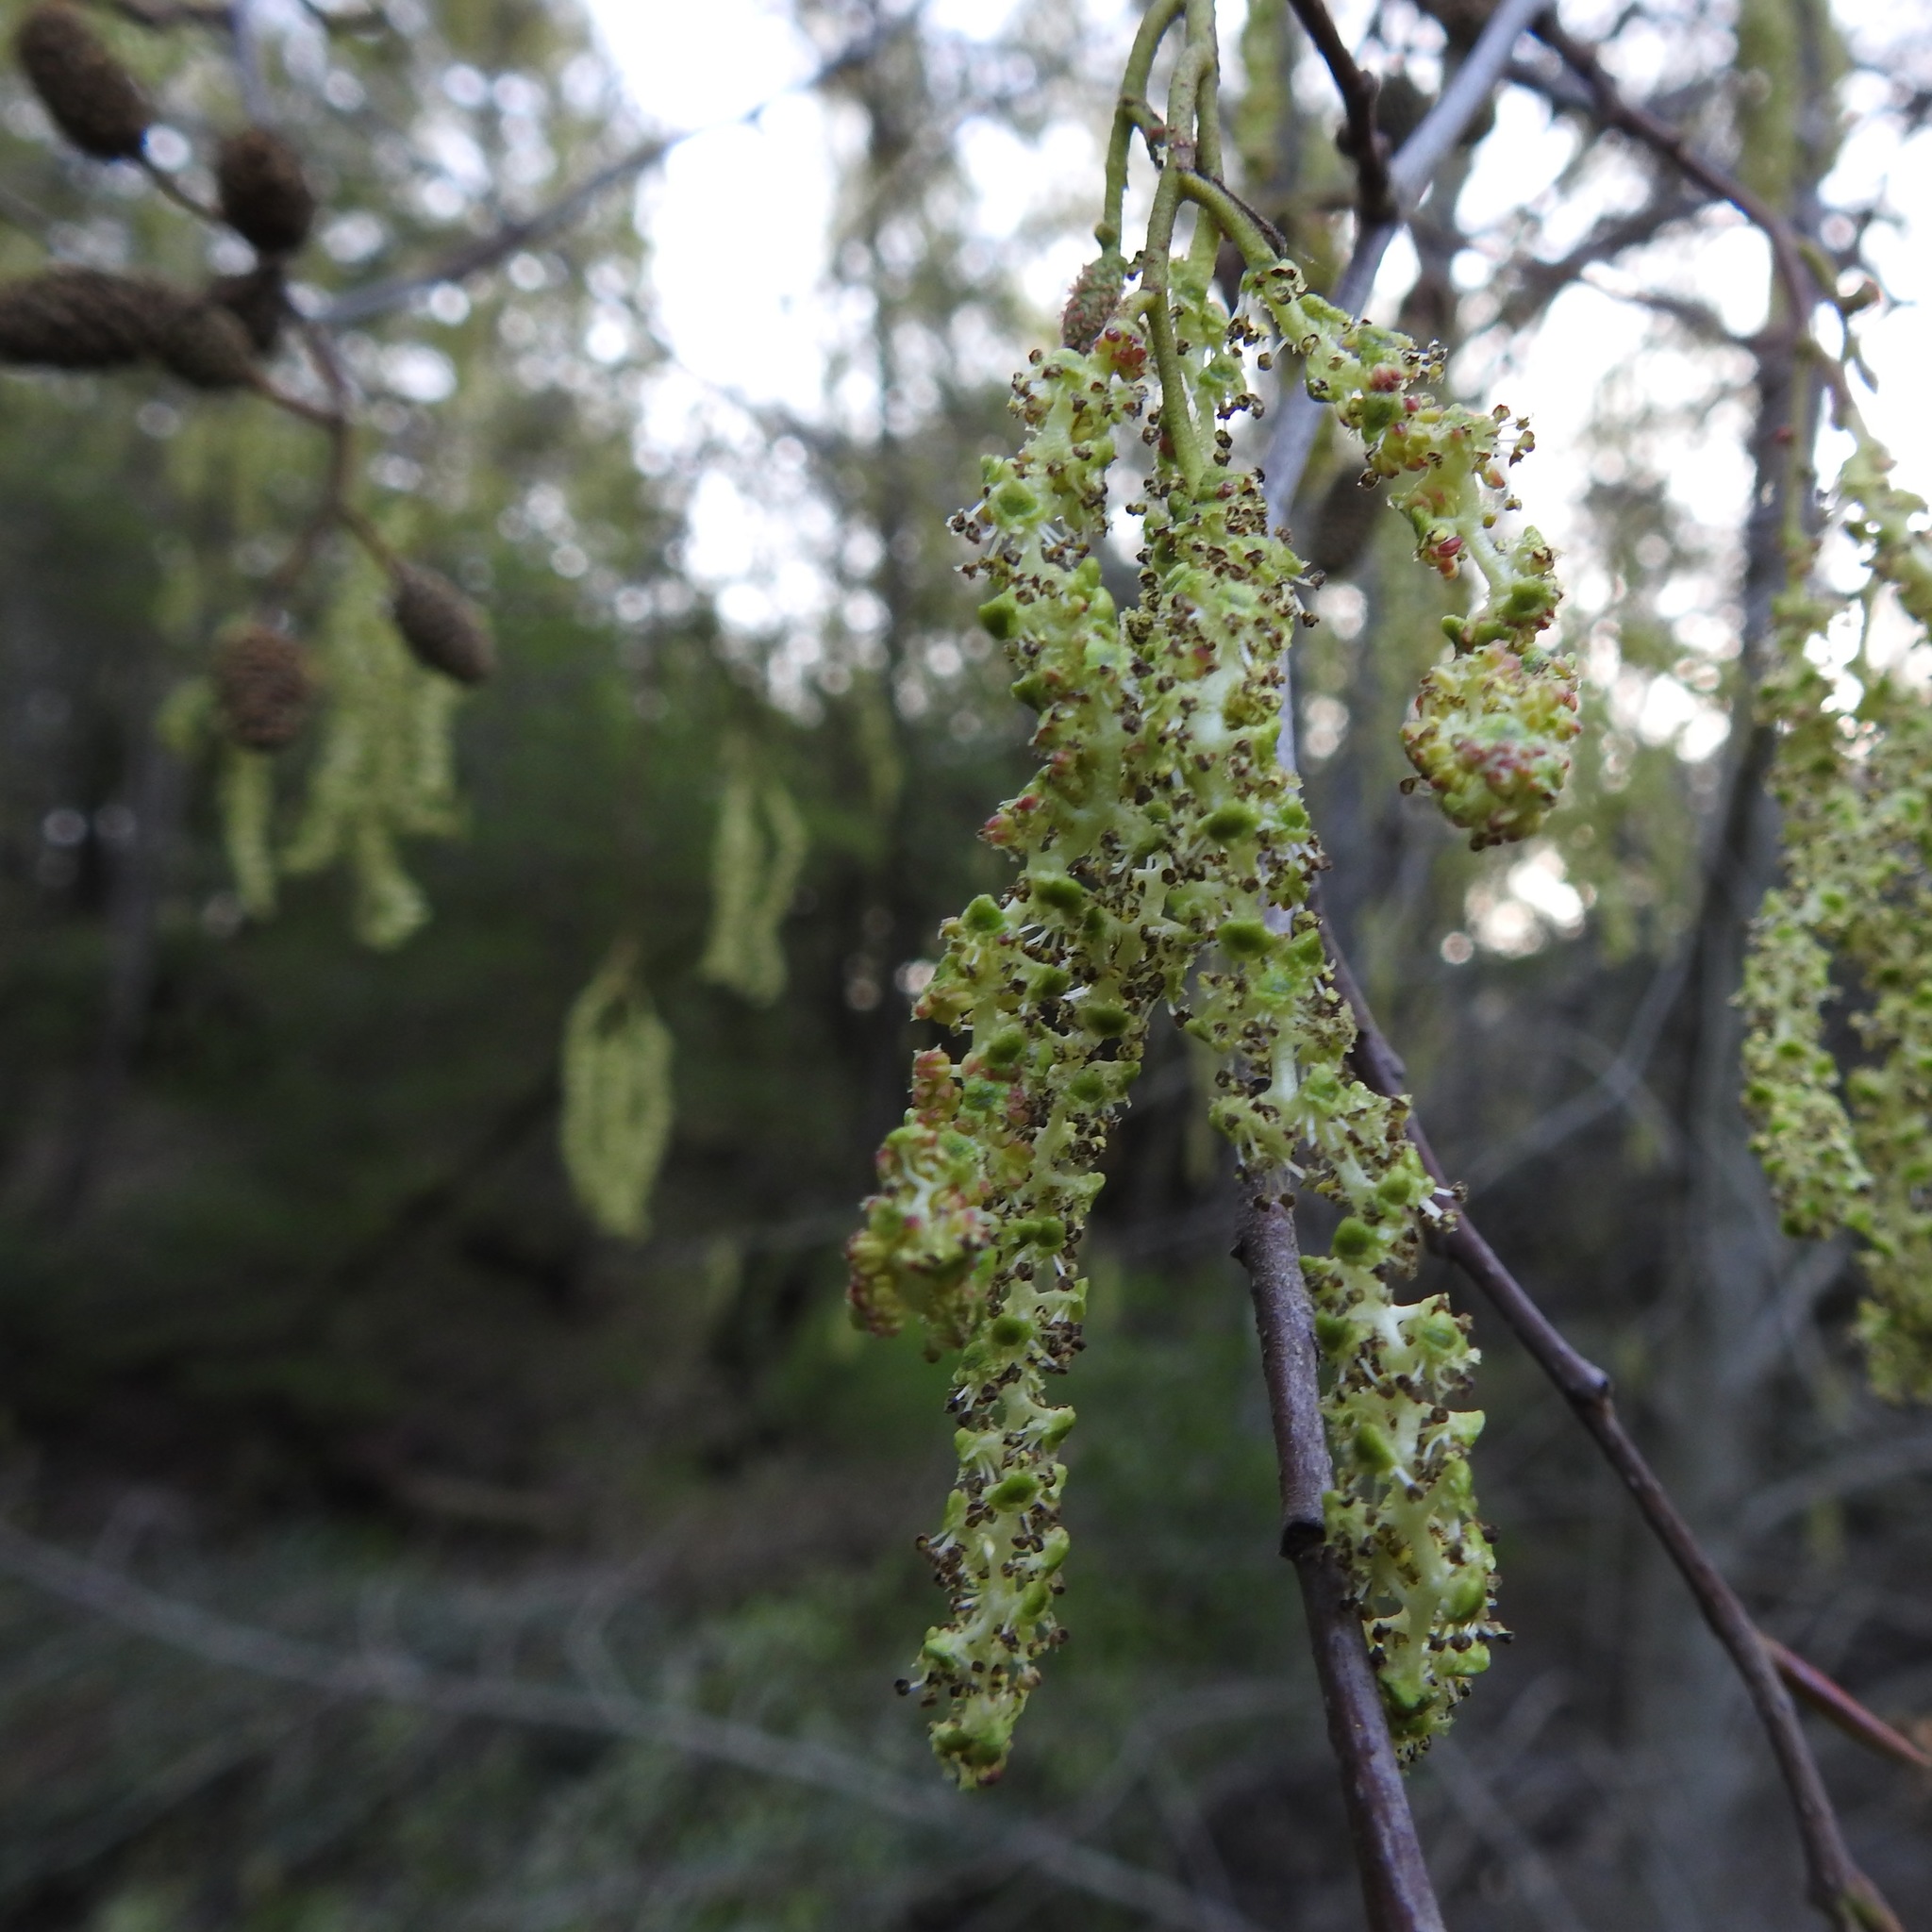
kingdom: Plantae
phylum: Tracheophyta
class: Magnoliopsida
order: Fagales
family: Betulaceae
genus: Alnus
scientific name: Alnus rhombifolia
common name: California alder
